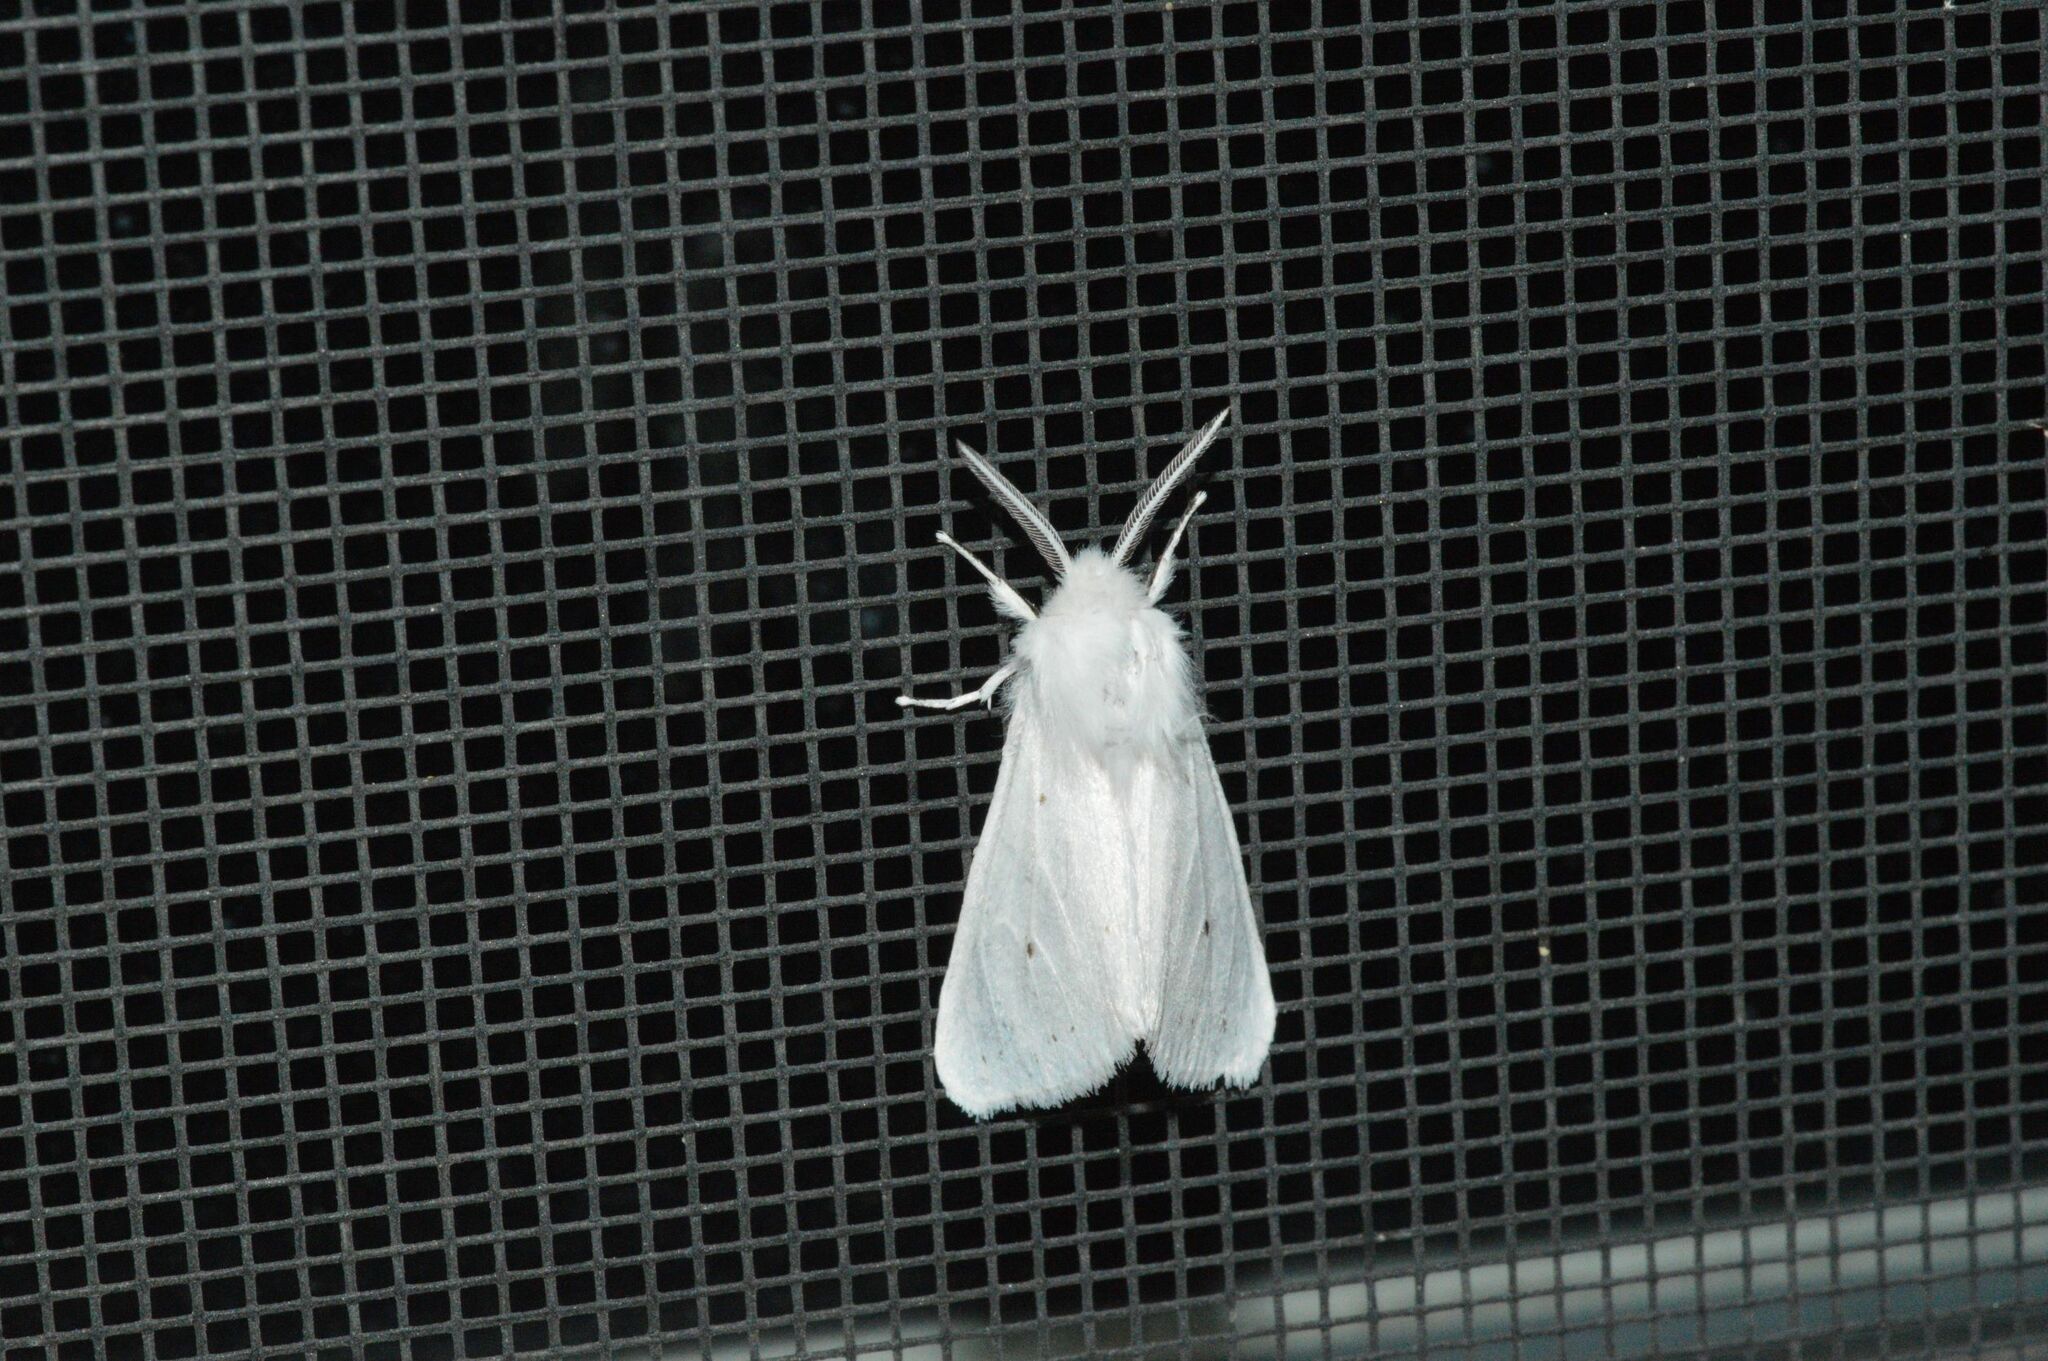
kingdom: Animalia
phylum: Arthropoda
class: Insecta
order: Lepidoptera
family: Erebidae
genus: Spilosoma
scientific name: Spilosoma congrua
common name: Agreeable tiger moth
